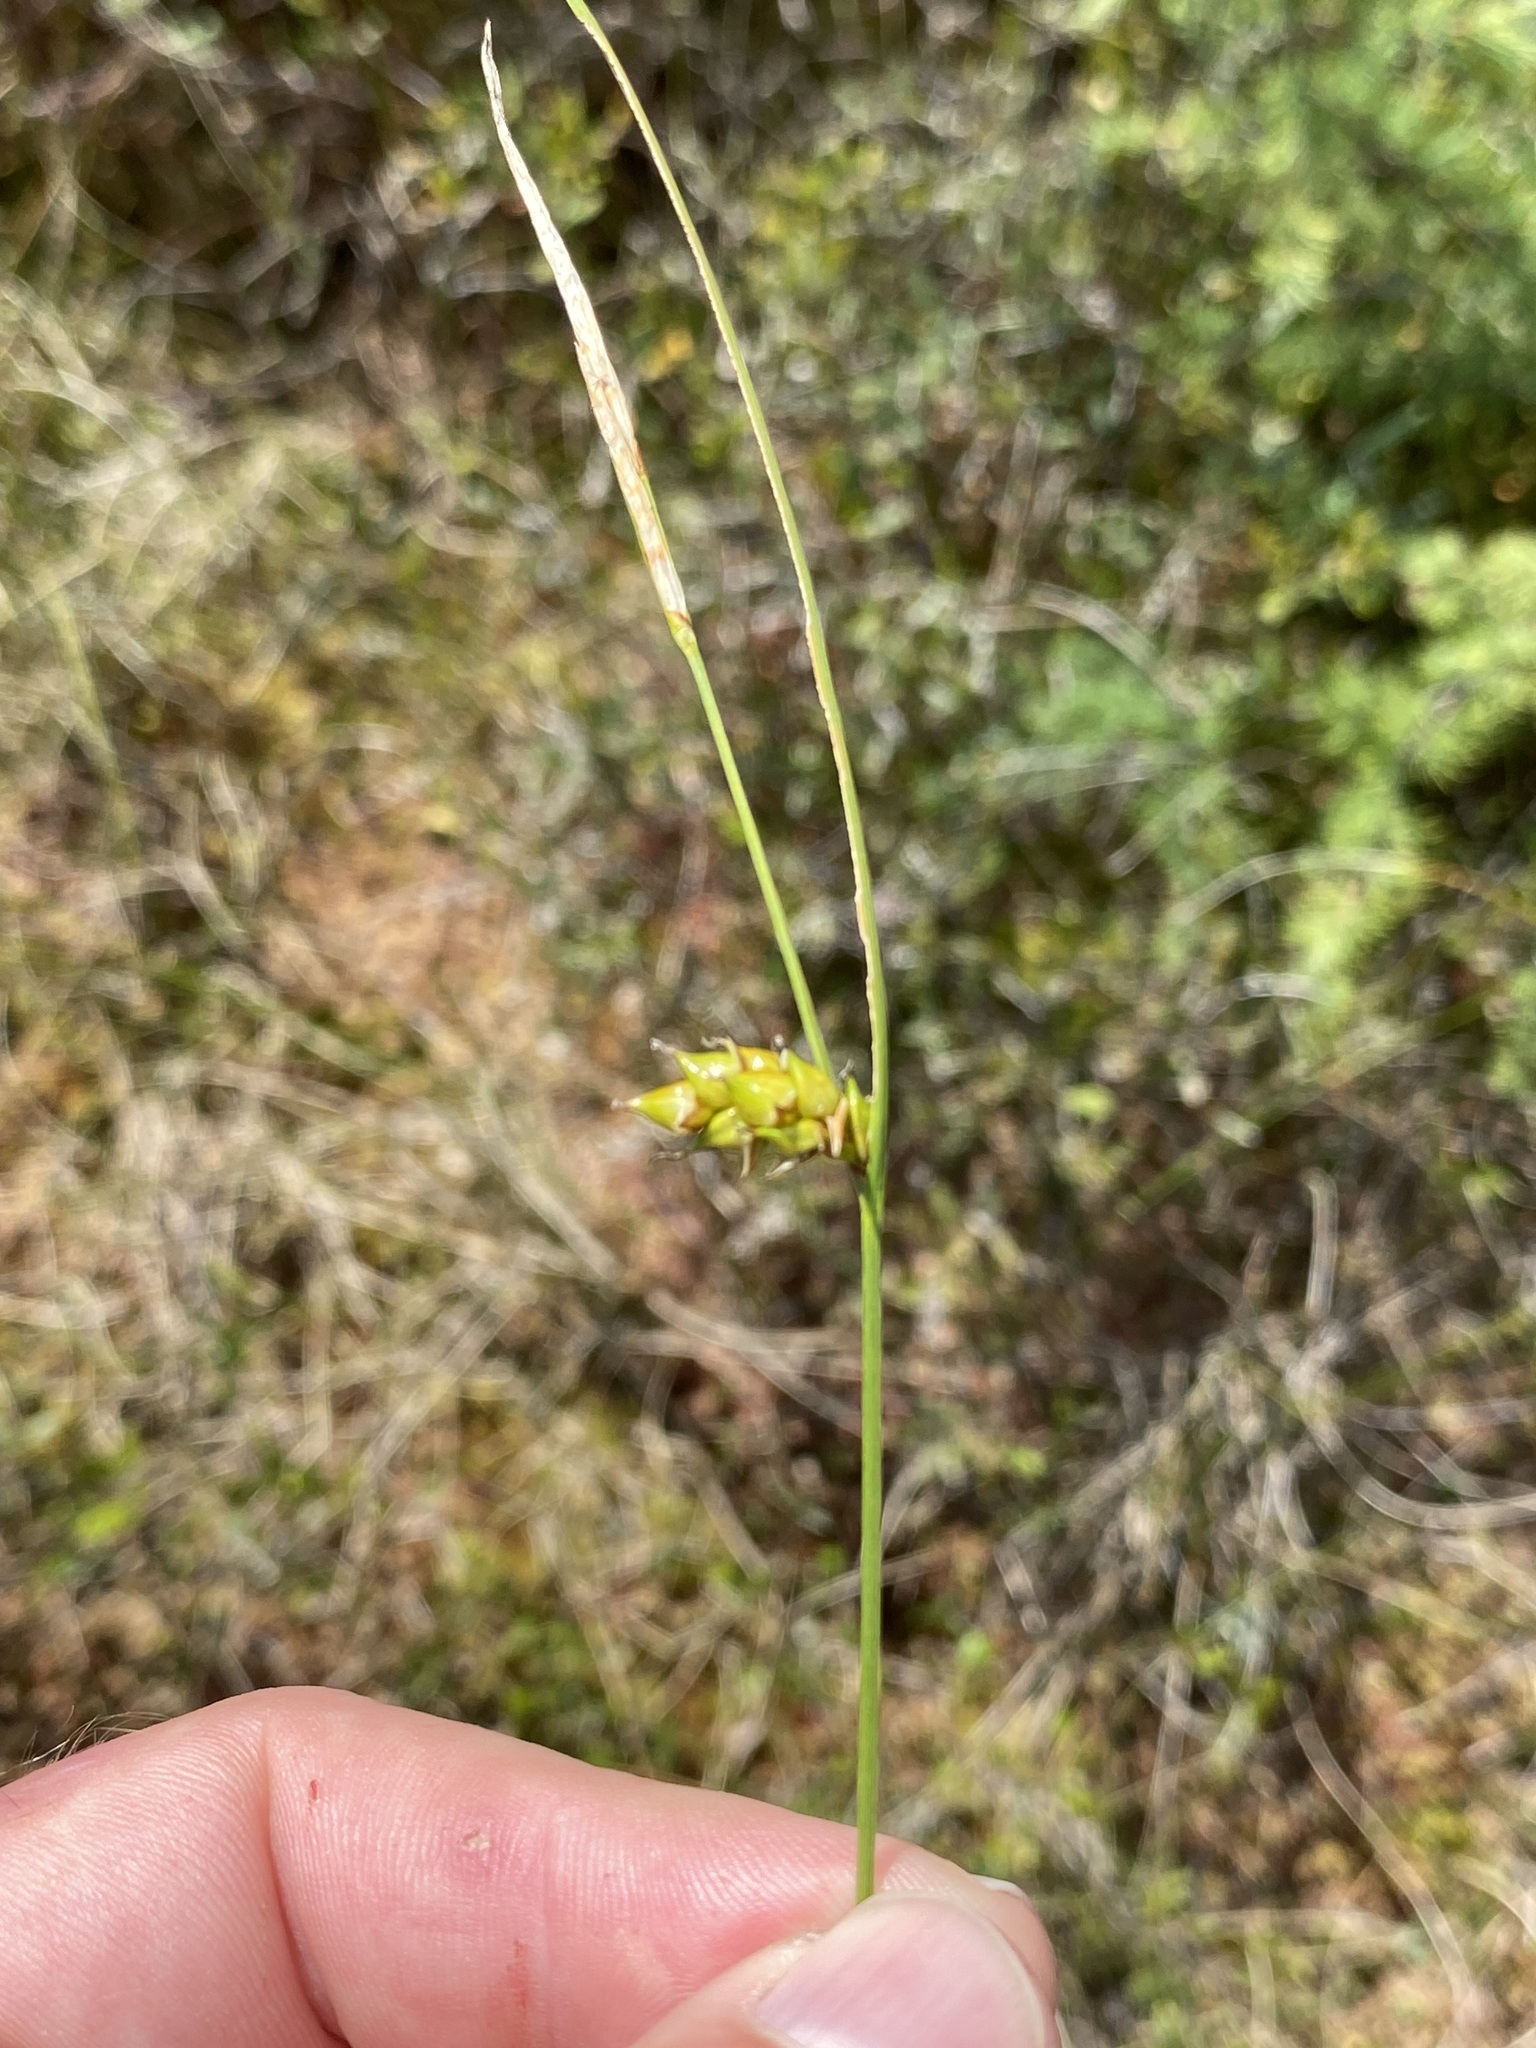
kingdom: Plantae
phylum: Tracheophyta
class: Liliopsida
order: Poales
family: Cyperaceae
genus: Carex
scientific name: Carex oligosperma
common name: Few-seed sedge
